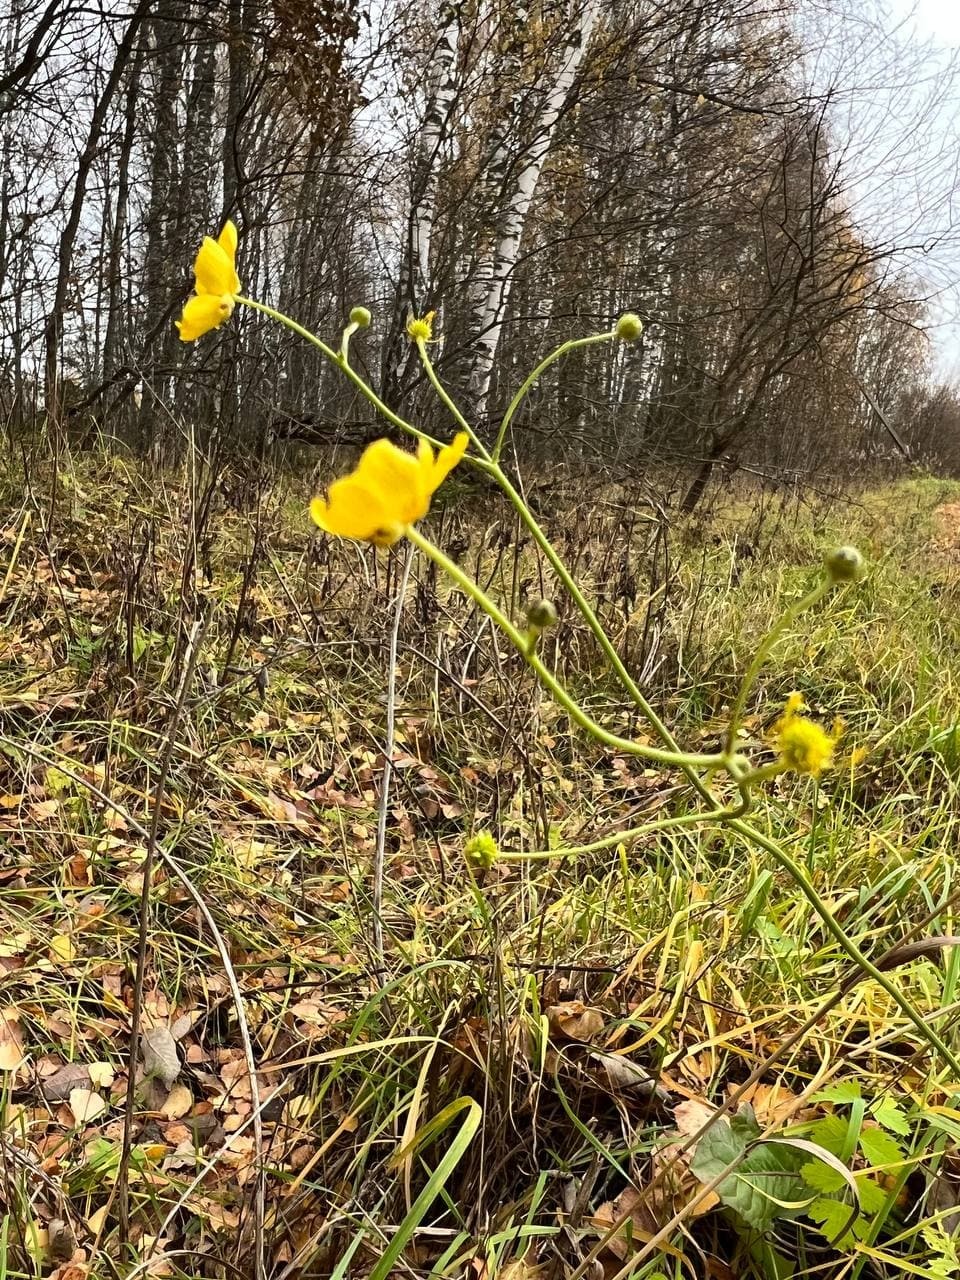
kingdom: Plantae
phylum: Tracheophyta
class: Magnoliopsida
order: Ranunculales
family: Ranunculaceae
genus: Ranunculus
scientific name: Ranunculus acris
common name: Meadow buttercup
